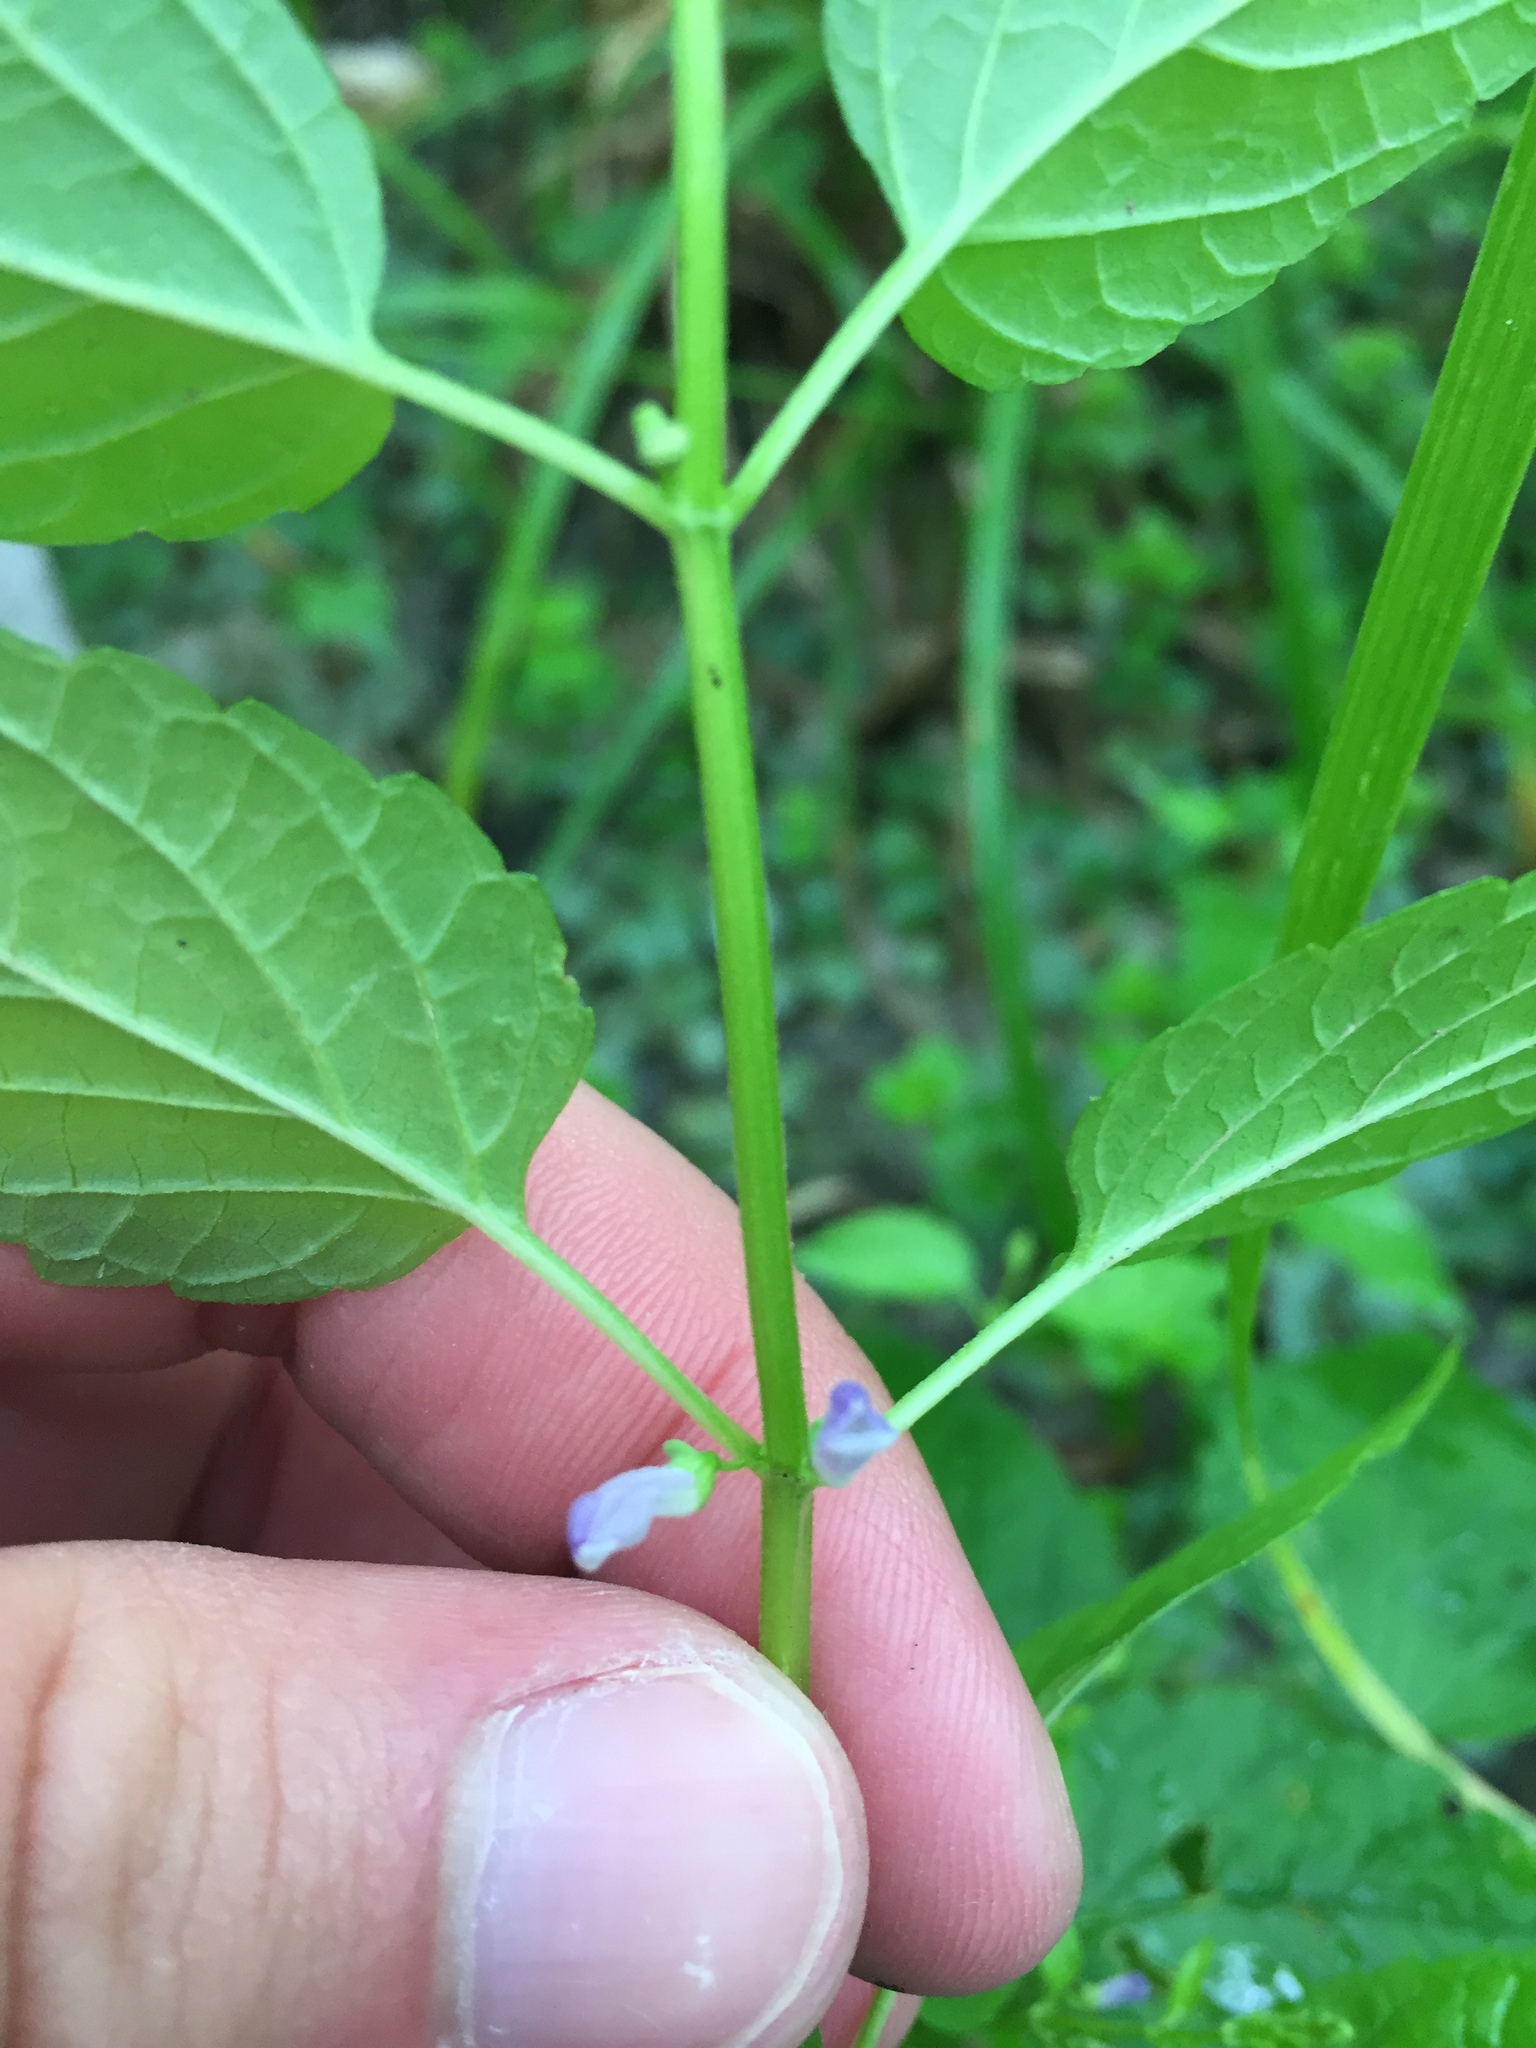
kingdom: Plantae
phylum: Tracheophyta
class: Magnoliopsida
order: Lamiales
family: Lamiaceae
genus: Scutellaria
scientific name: Scutellaria lateriflora
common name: Blue skullcap
